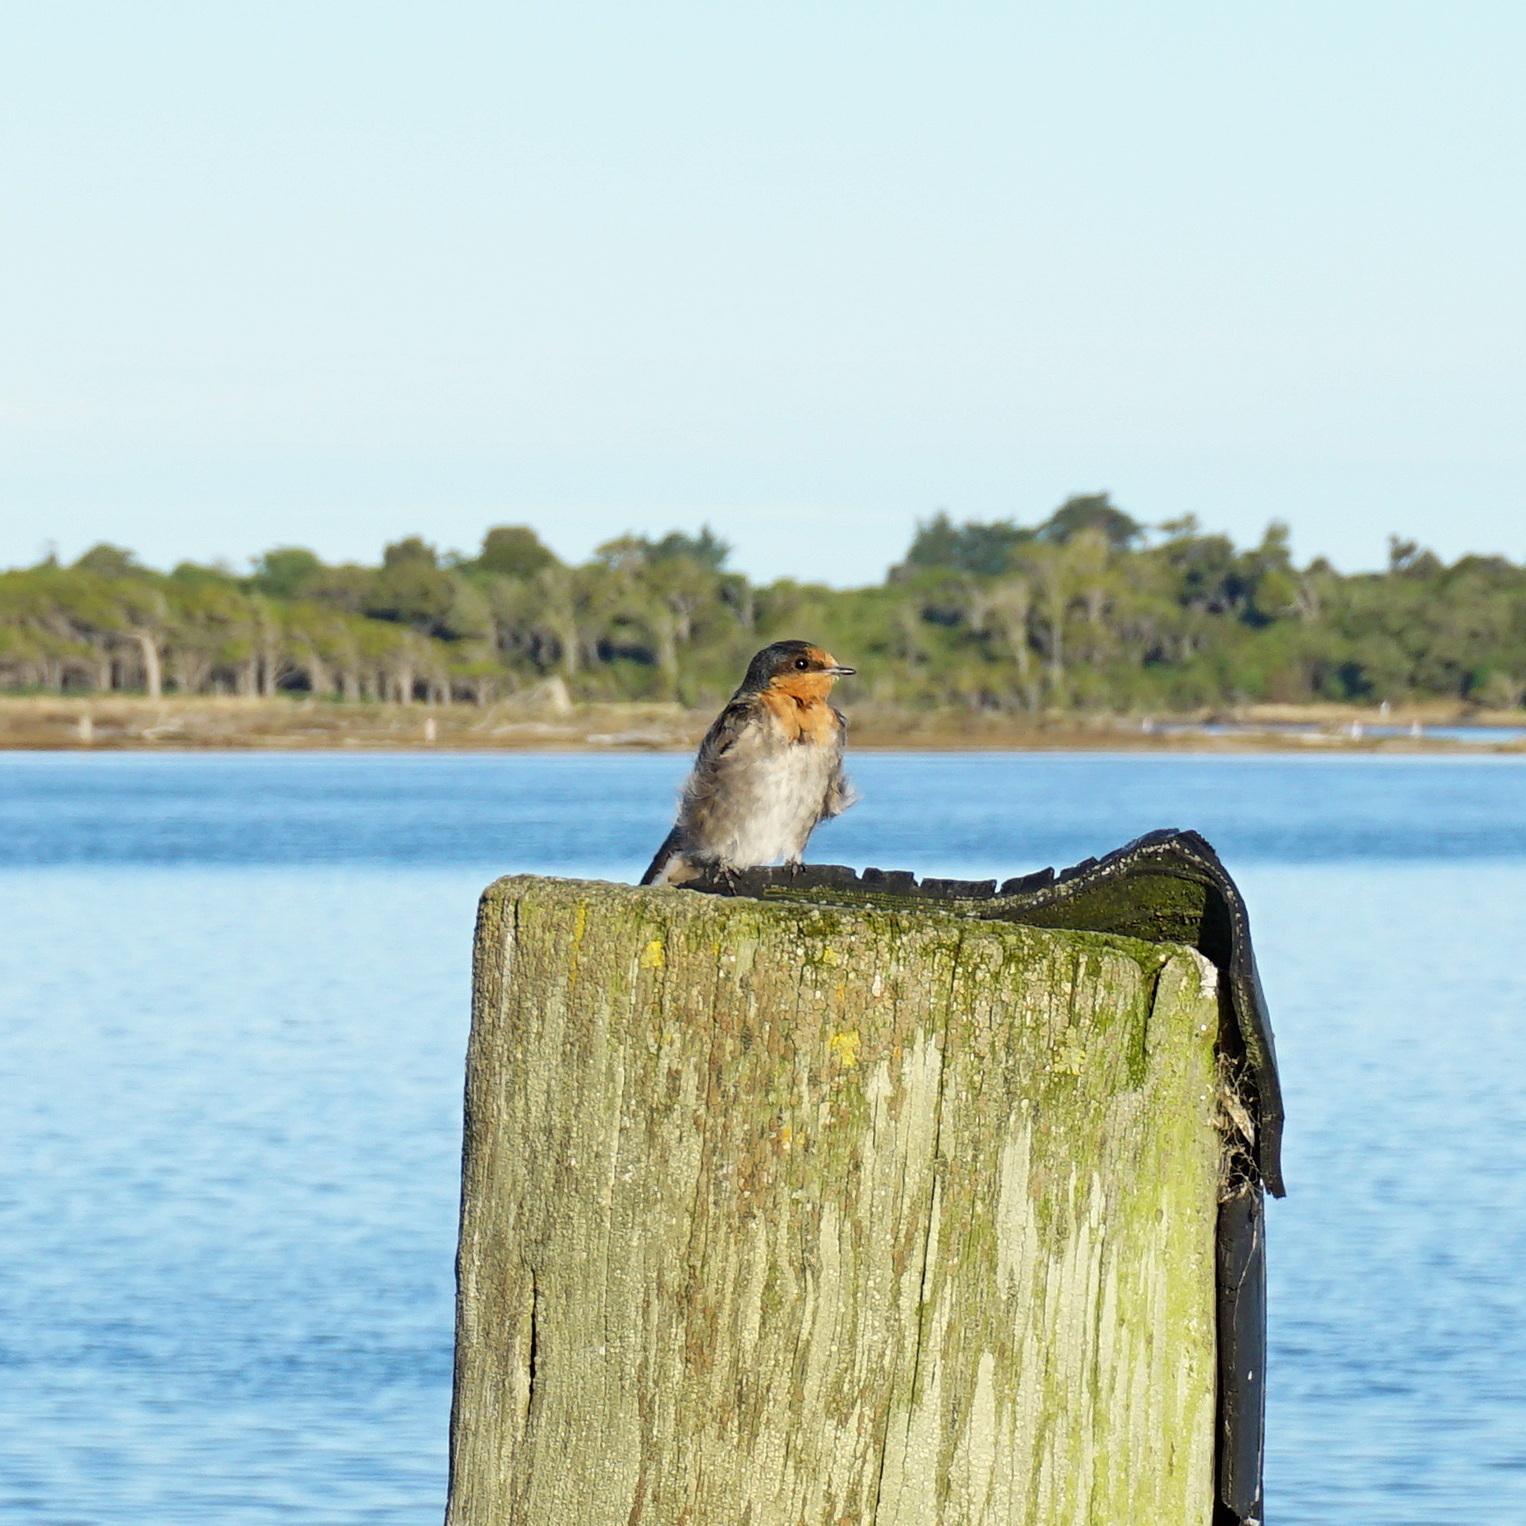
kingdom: Animalia
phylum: Chordata
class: Aves
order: Passeriformes
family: Hirundinidae
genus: Hirundo
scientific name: Hirundo neoxena
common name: Welcome swallow
